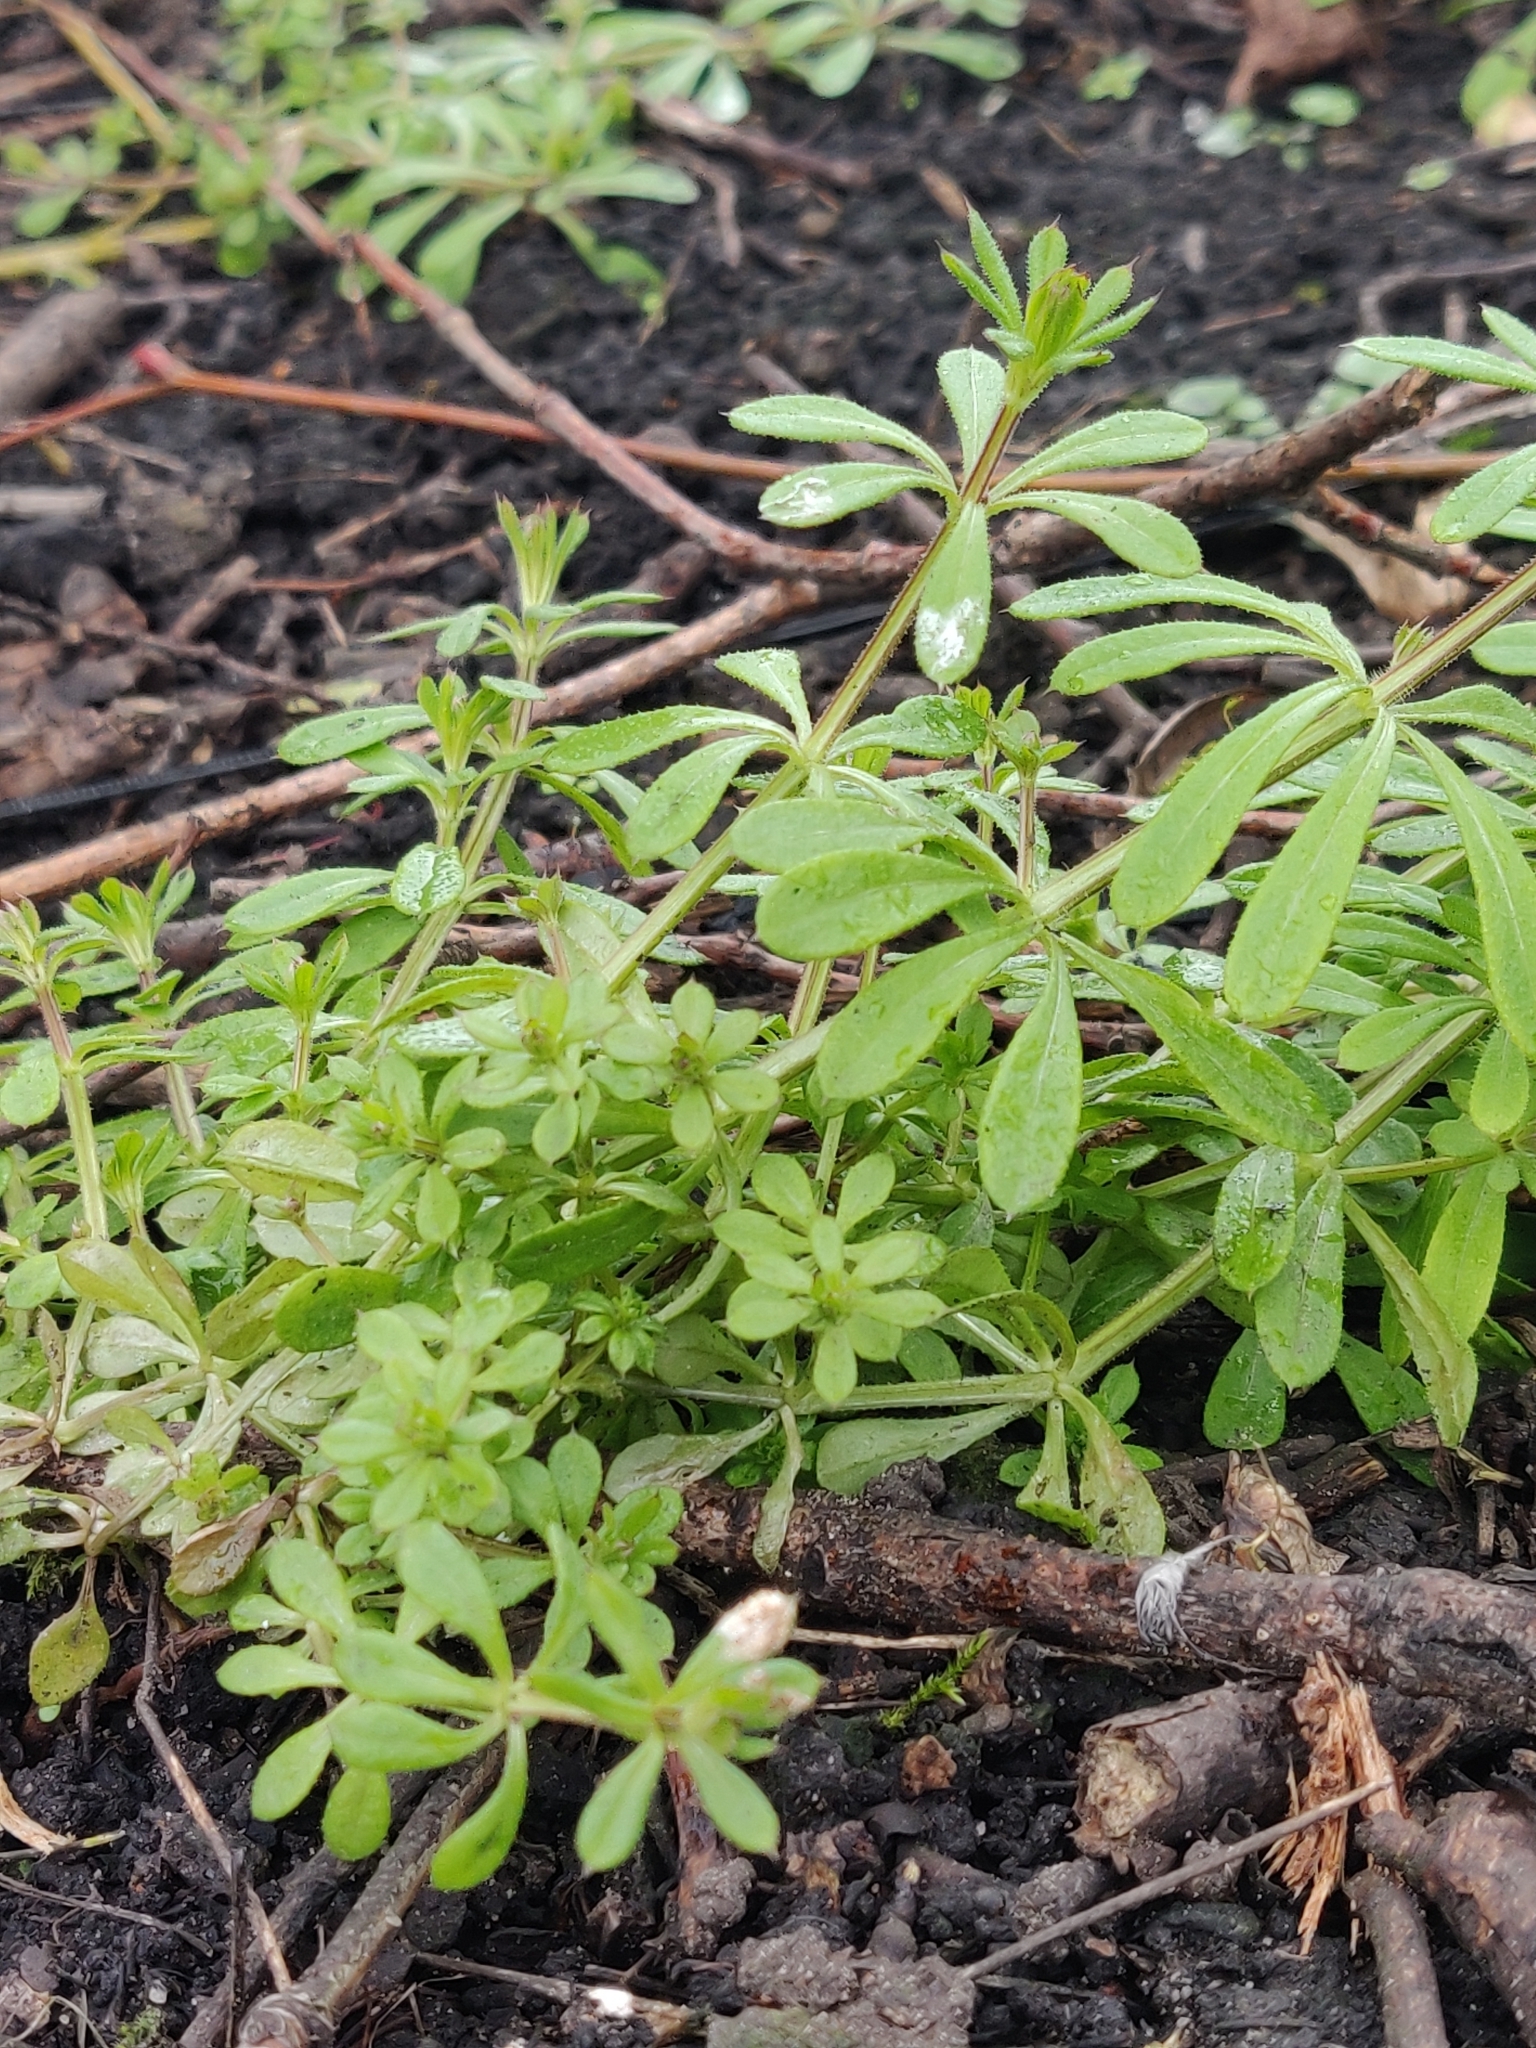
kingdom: Plantae
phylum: Tracheophyta
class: Magnoliopsida
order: Gentianales
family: Rubiaceae
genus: Galium
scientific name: Galium aparine
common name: Cleavers
